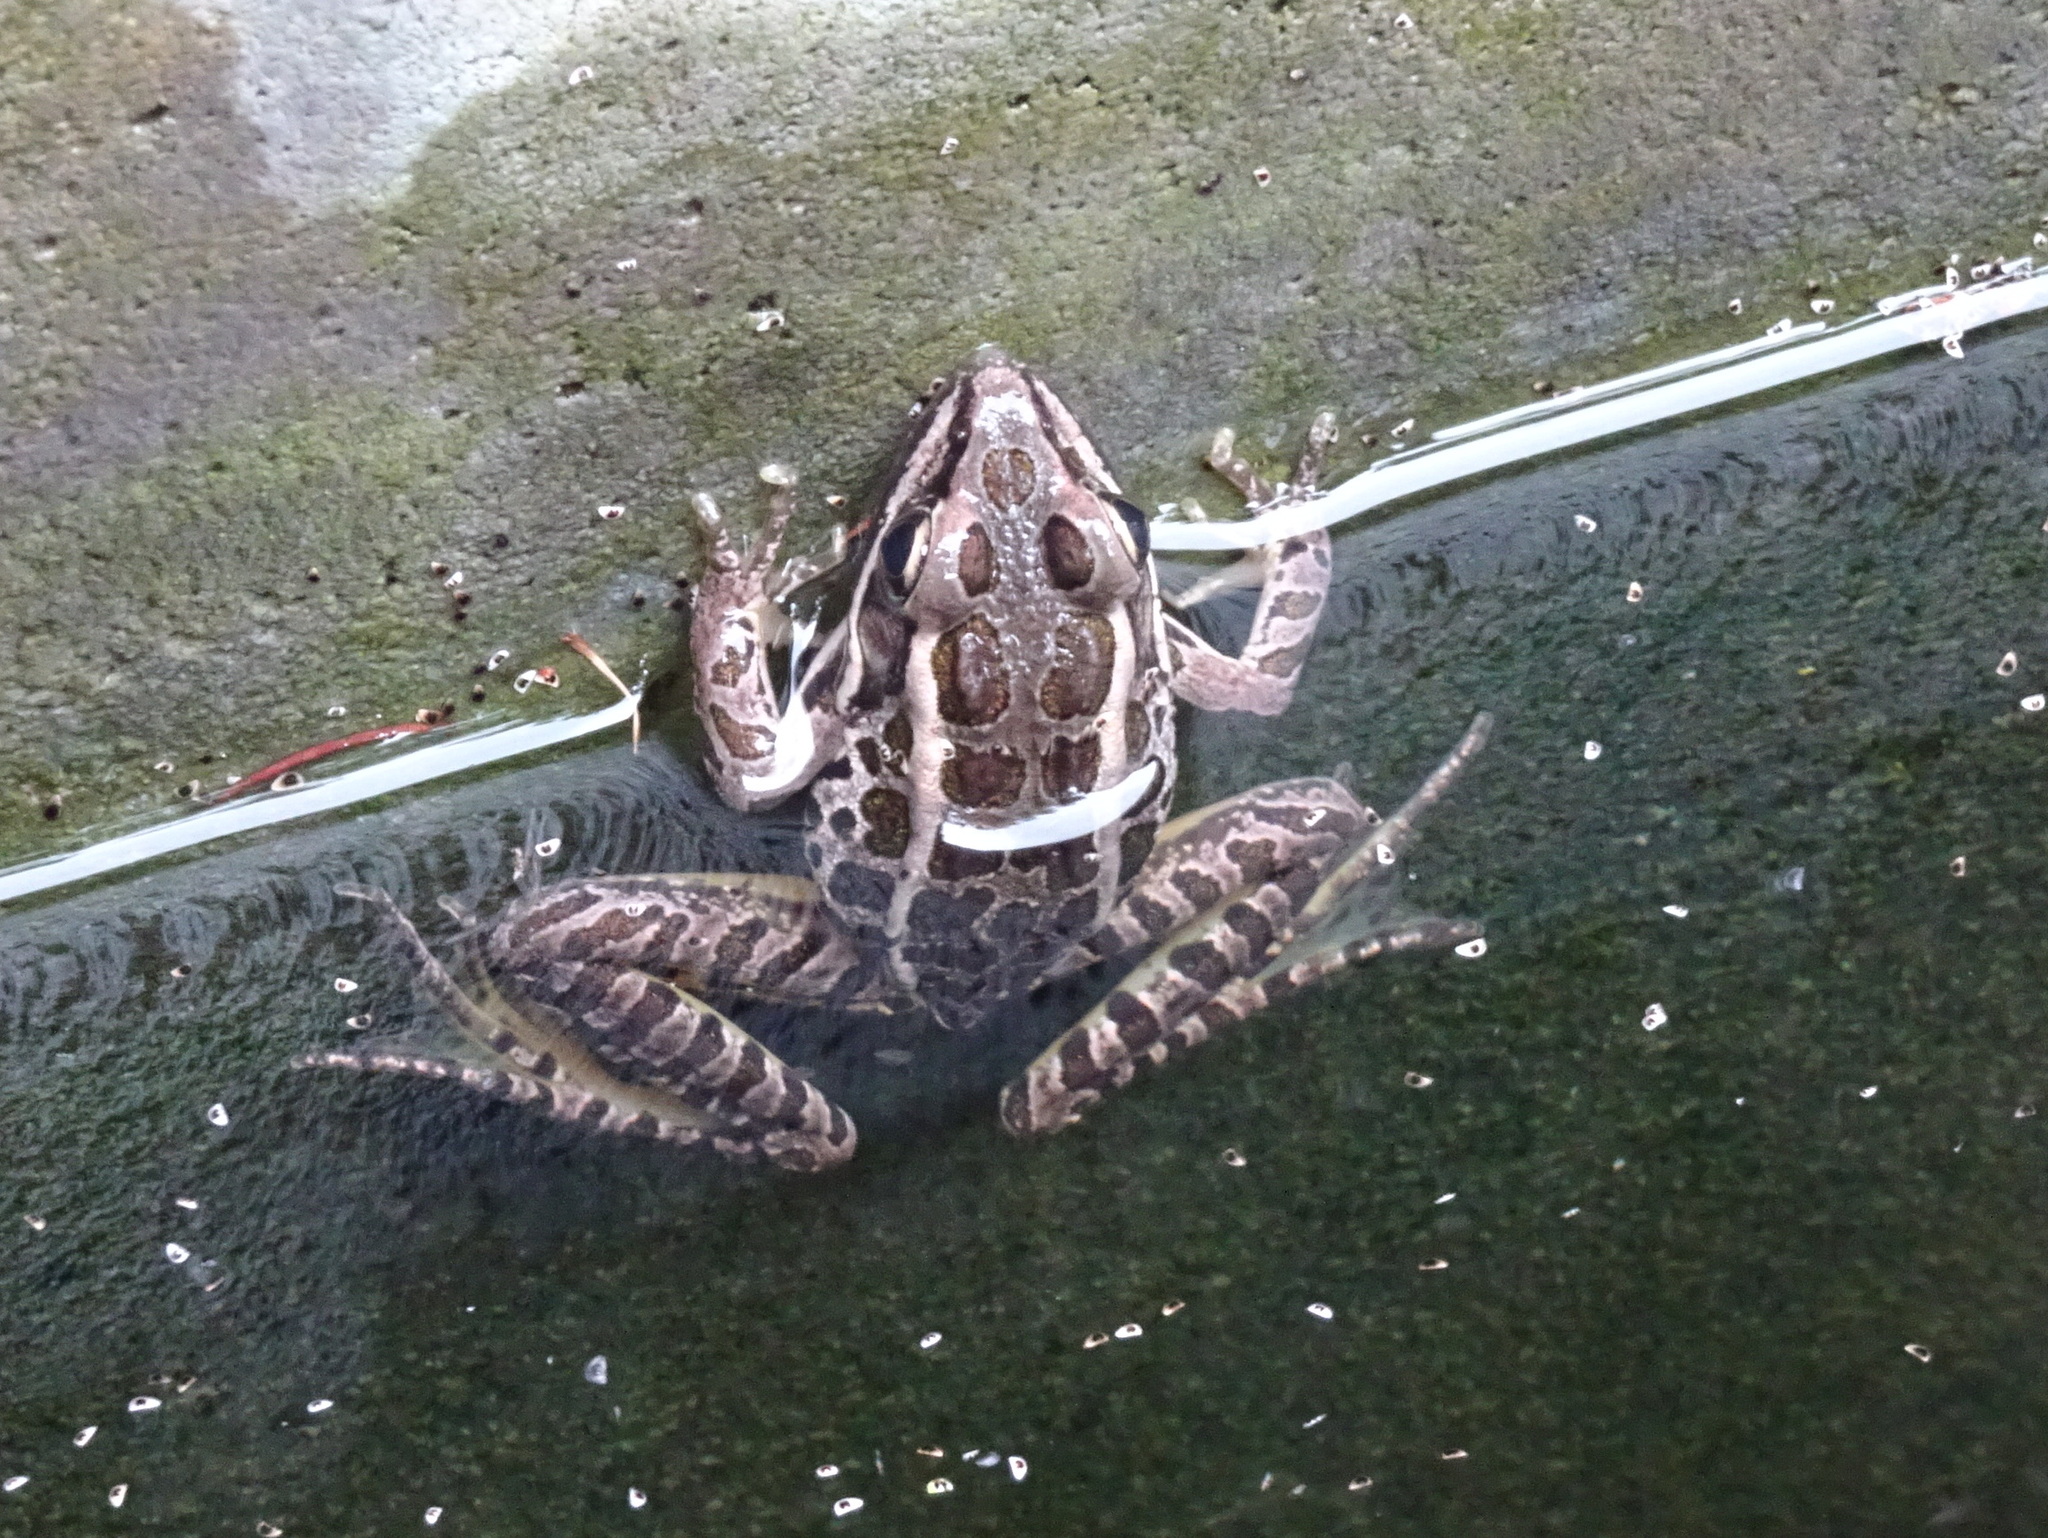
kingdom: Animalia
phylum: Chordata
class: Amphibia
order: Anura
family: Ranidae
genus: Lithobates
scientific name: Lithobates palustris
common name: Pickerel frog
